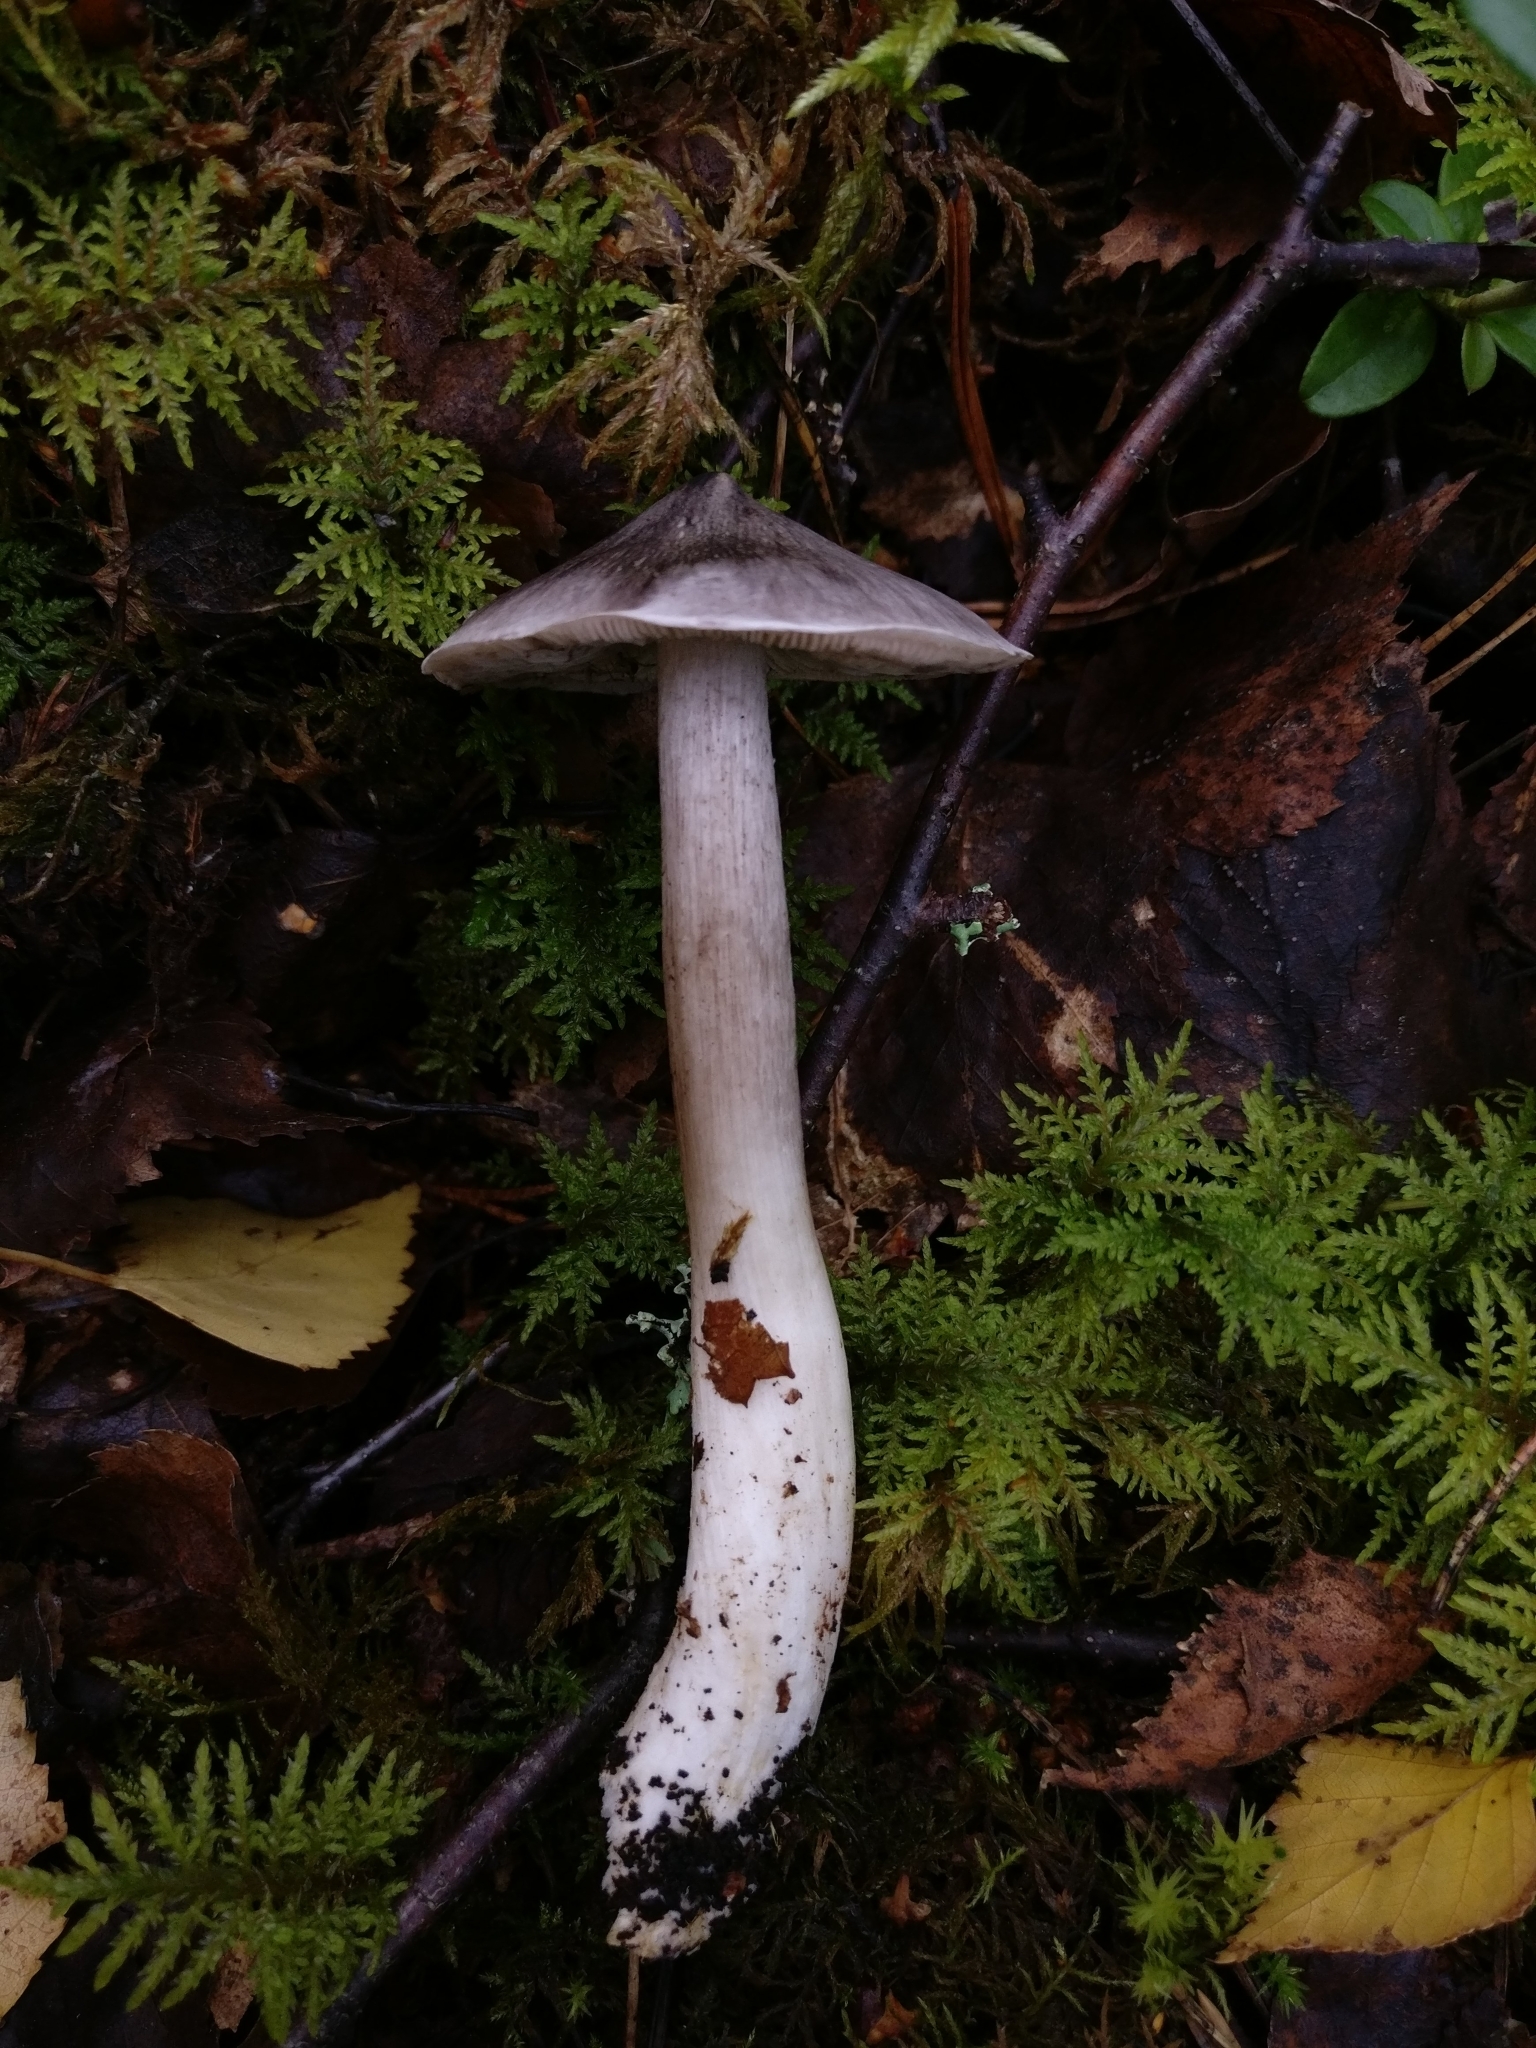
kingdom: Fungi
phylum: Basidiomycota
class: Agaricomycetes
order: Agaricales
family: Tricholomataceae
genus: Tricholoma
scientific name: Tricholoma virgatum
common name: Ashen knight
